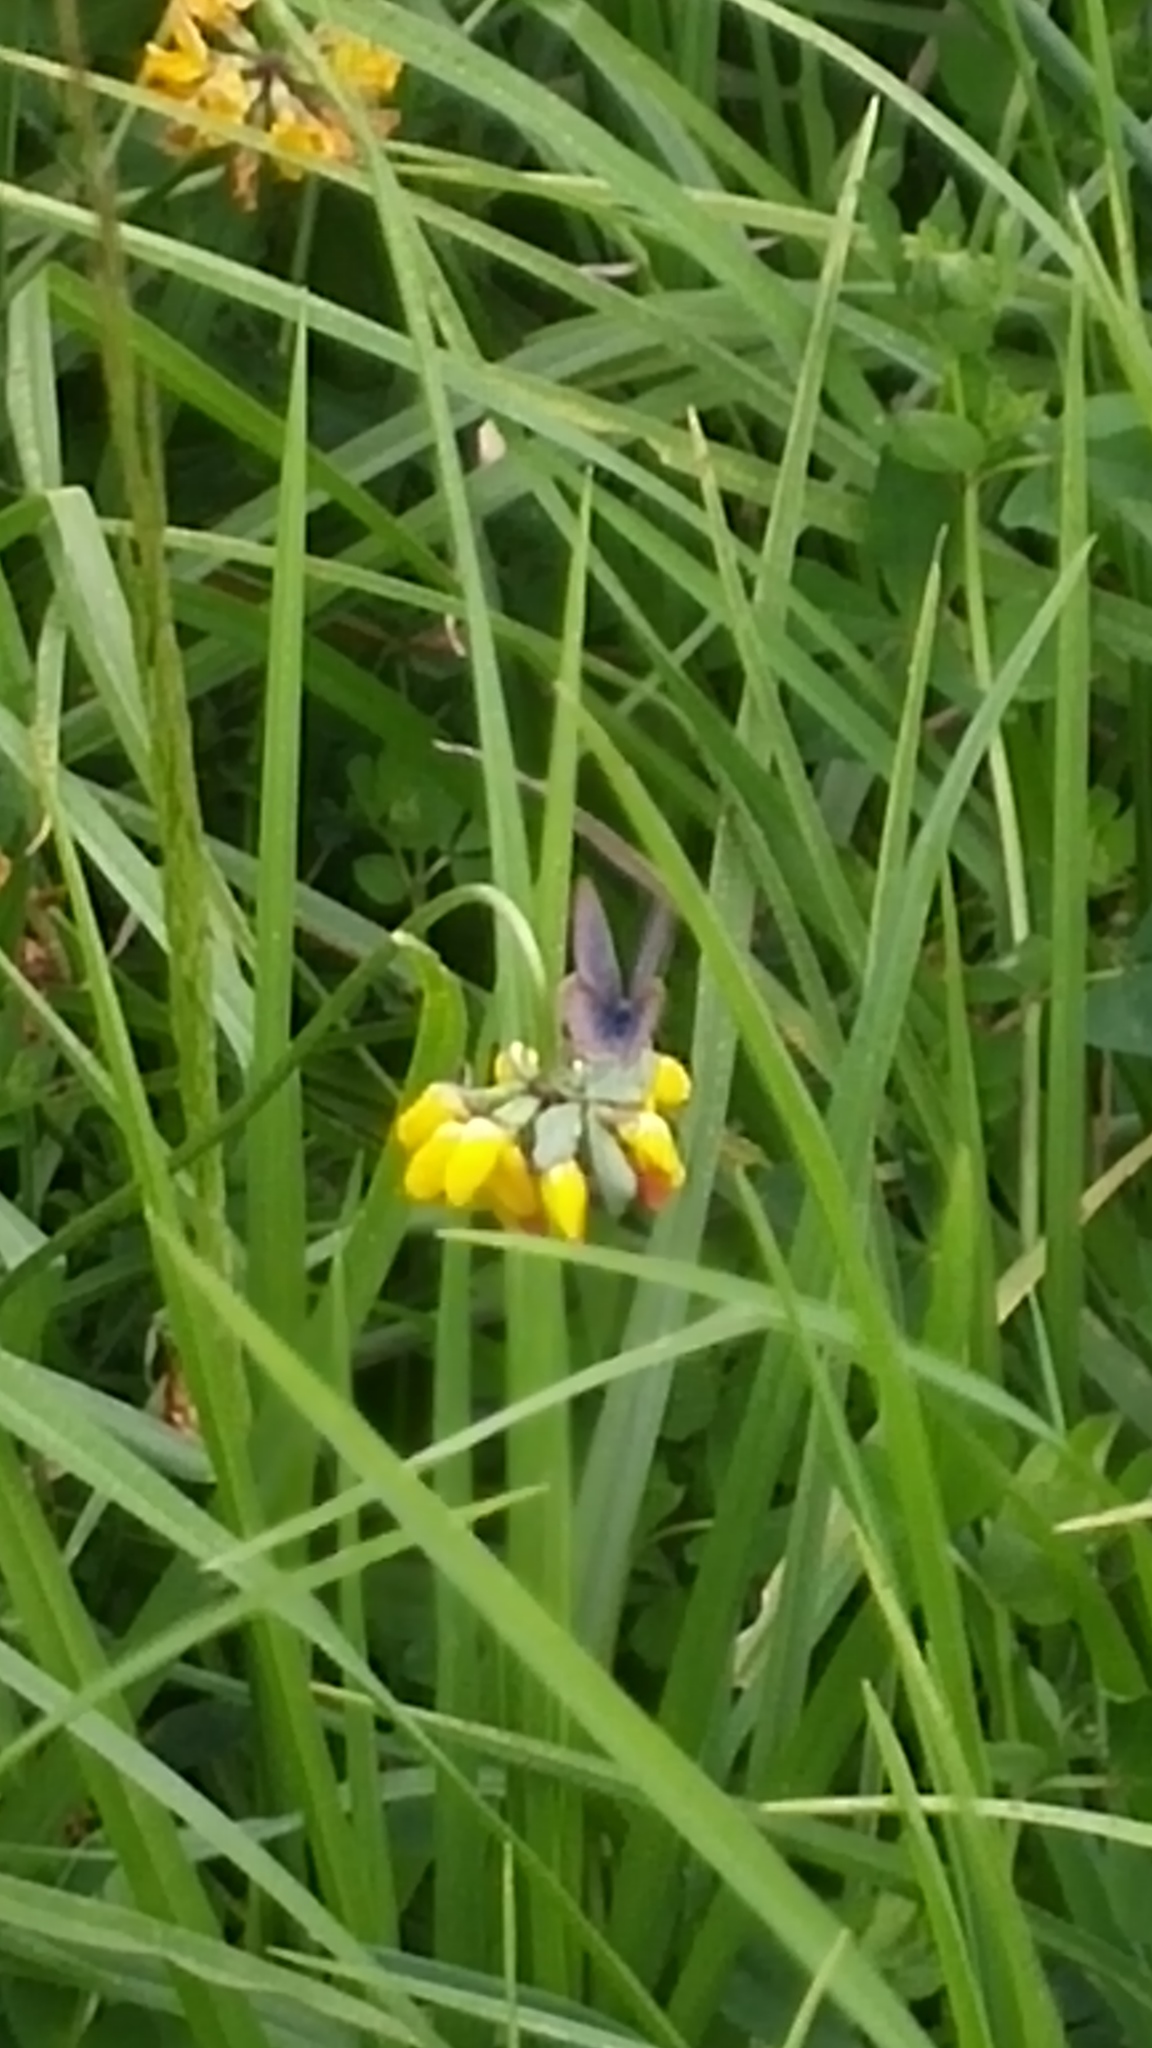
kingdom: Animalia
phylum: Arthropoda
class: Insecta
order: Lepidoptera
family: Lycaenidae
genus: Lampides
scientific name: Lampides boeticus
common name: Long-tailed blue
